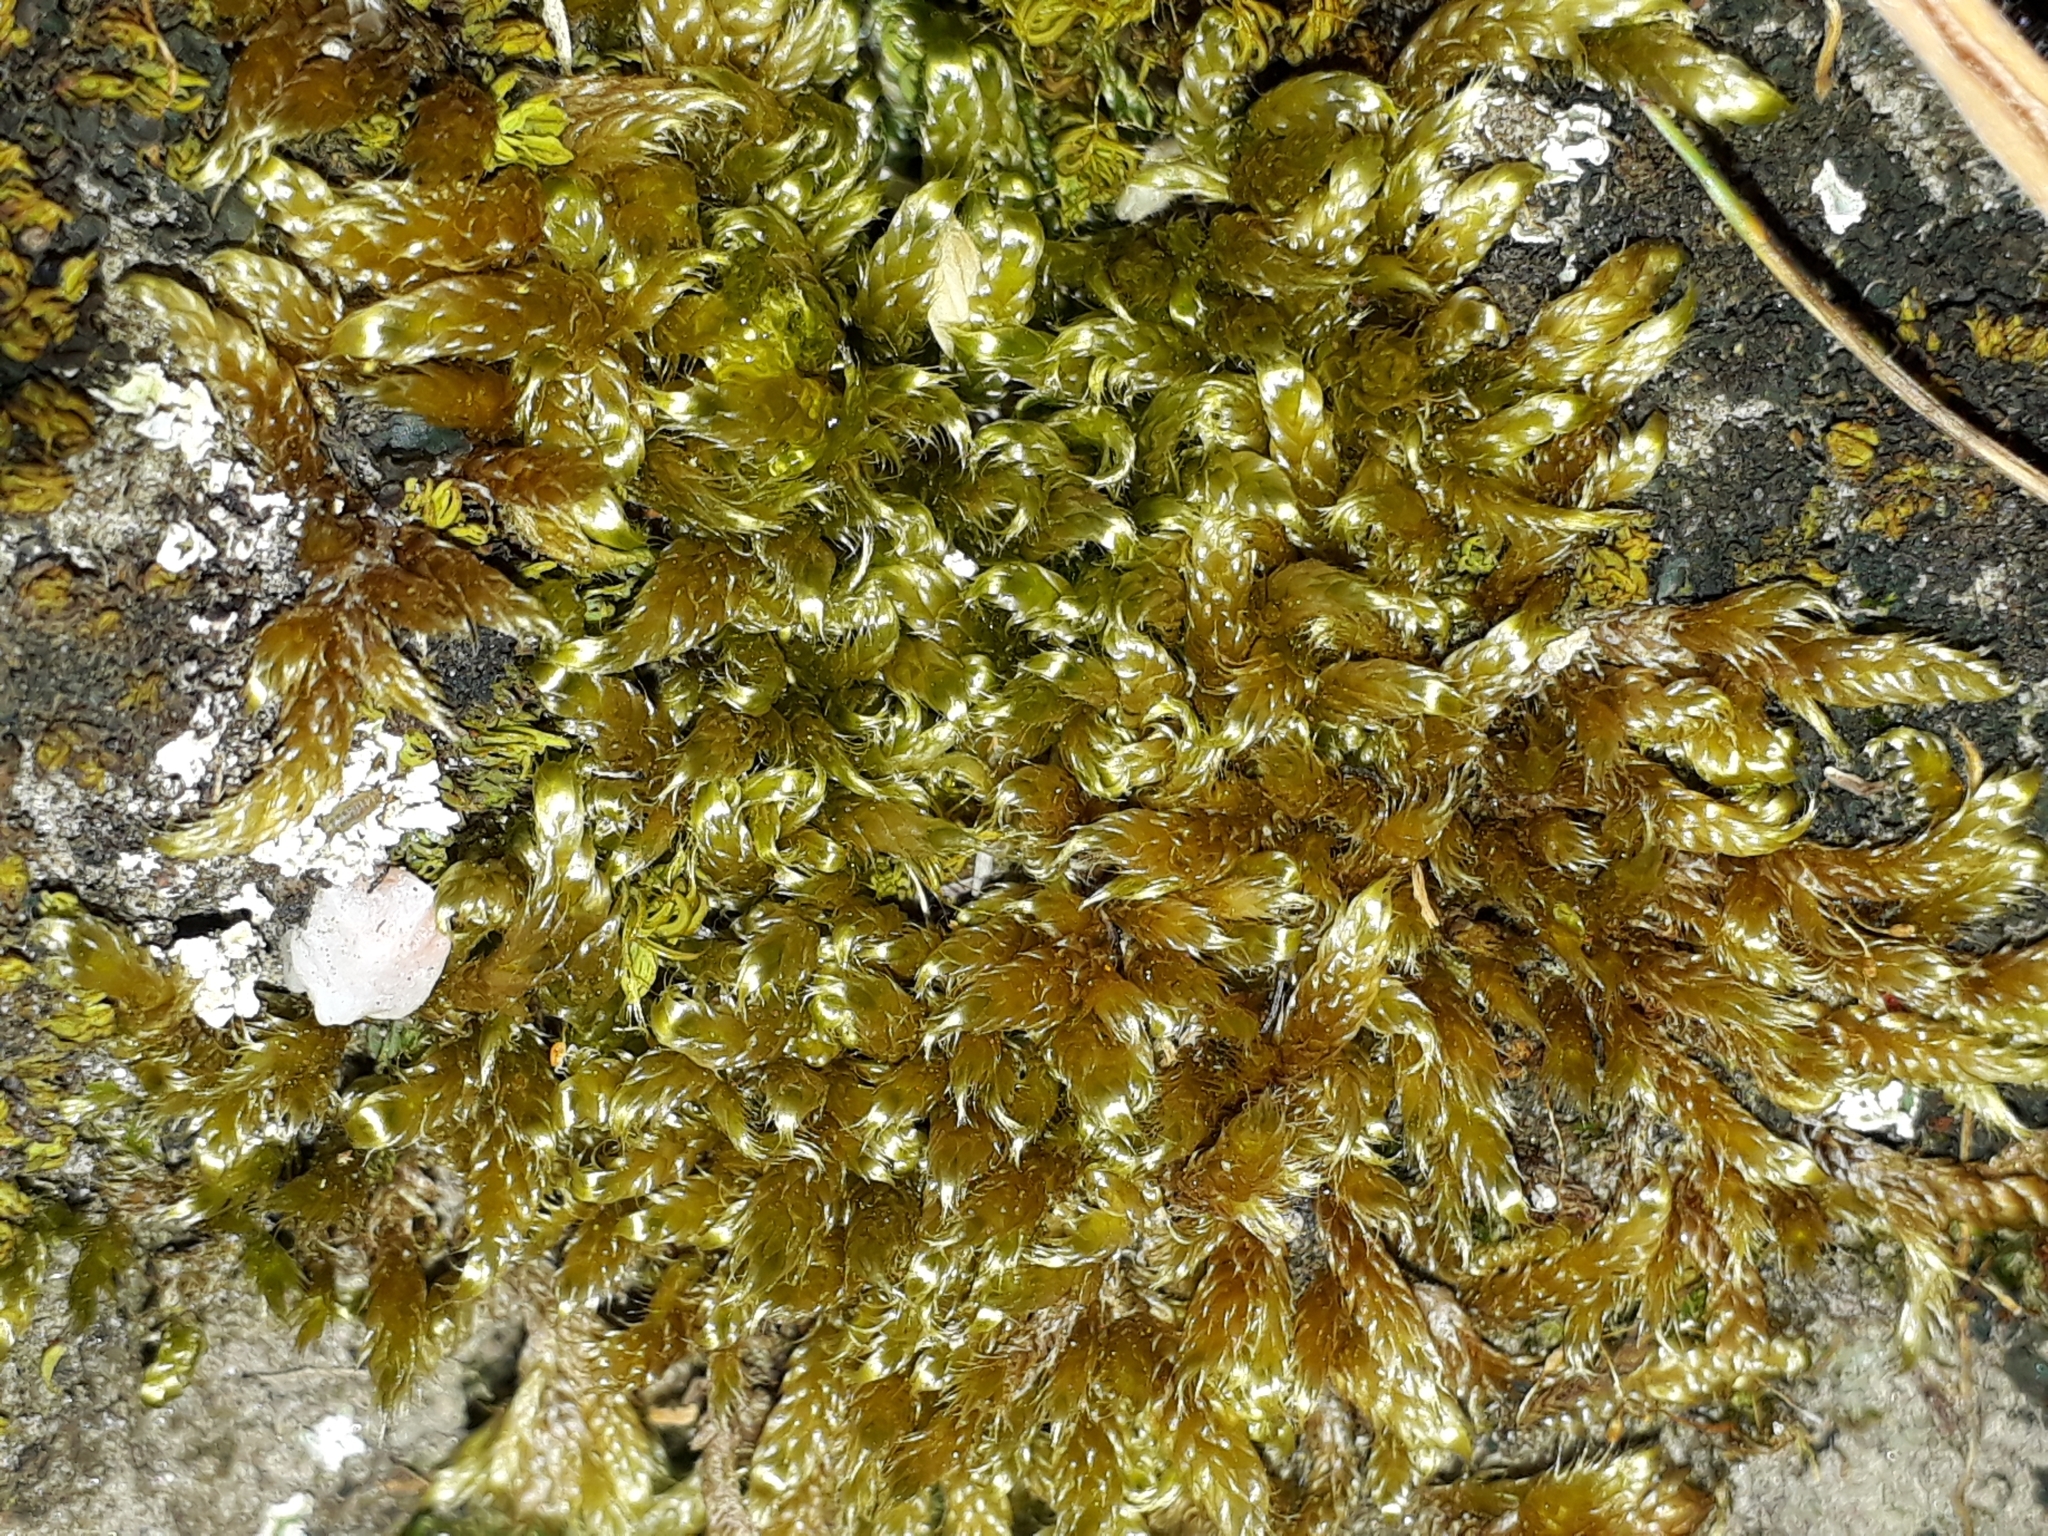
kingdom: Plantae
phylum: Bryophyta
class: Bryopsida
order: Hypnales
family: Hypnaceae
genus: Hypnum
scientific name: Hypnum cupressiforme
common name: Cypress-leaved plait-moss
